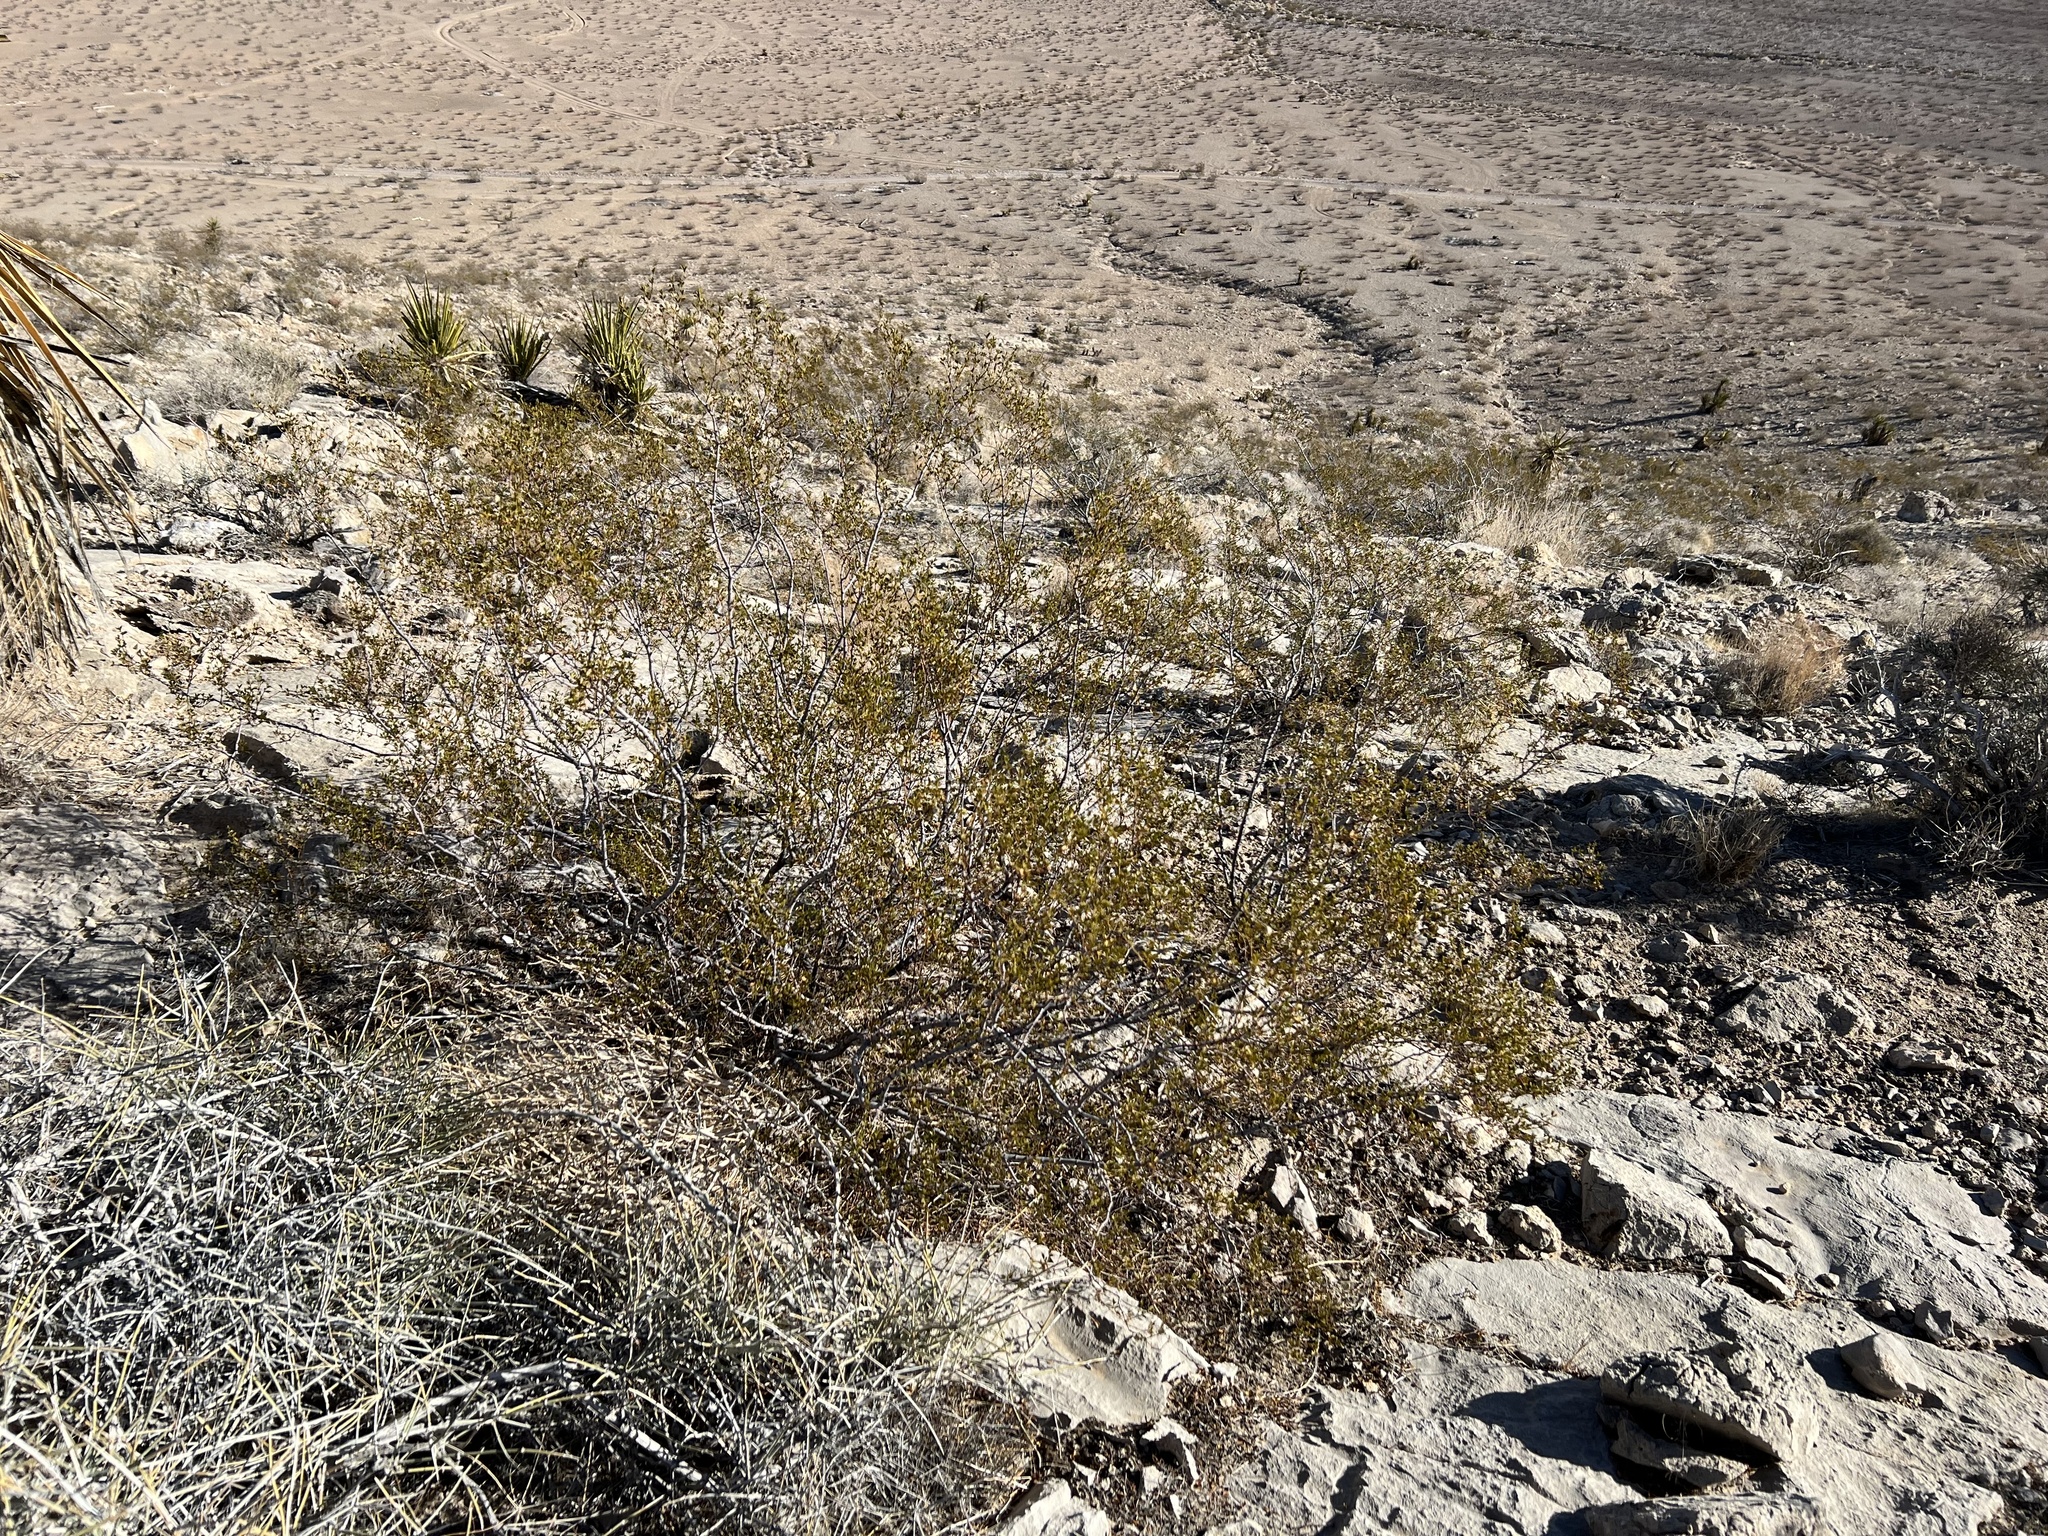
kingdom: Plantae
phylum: Tracheophyta
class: Magnoliopsida
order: Zygophyllales
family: Zygophyllaceae
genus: Larrea
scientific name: Larrea tridentata
